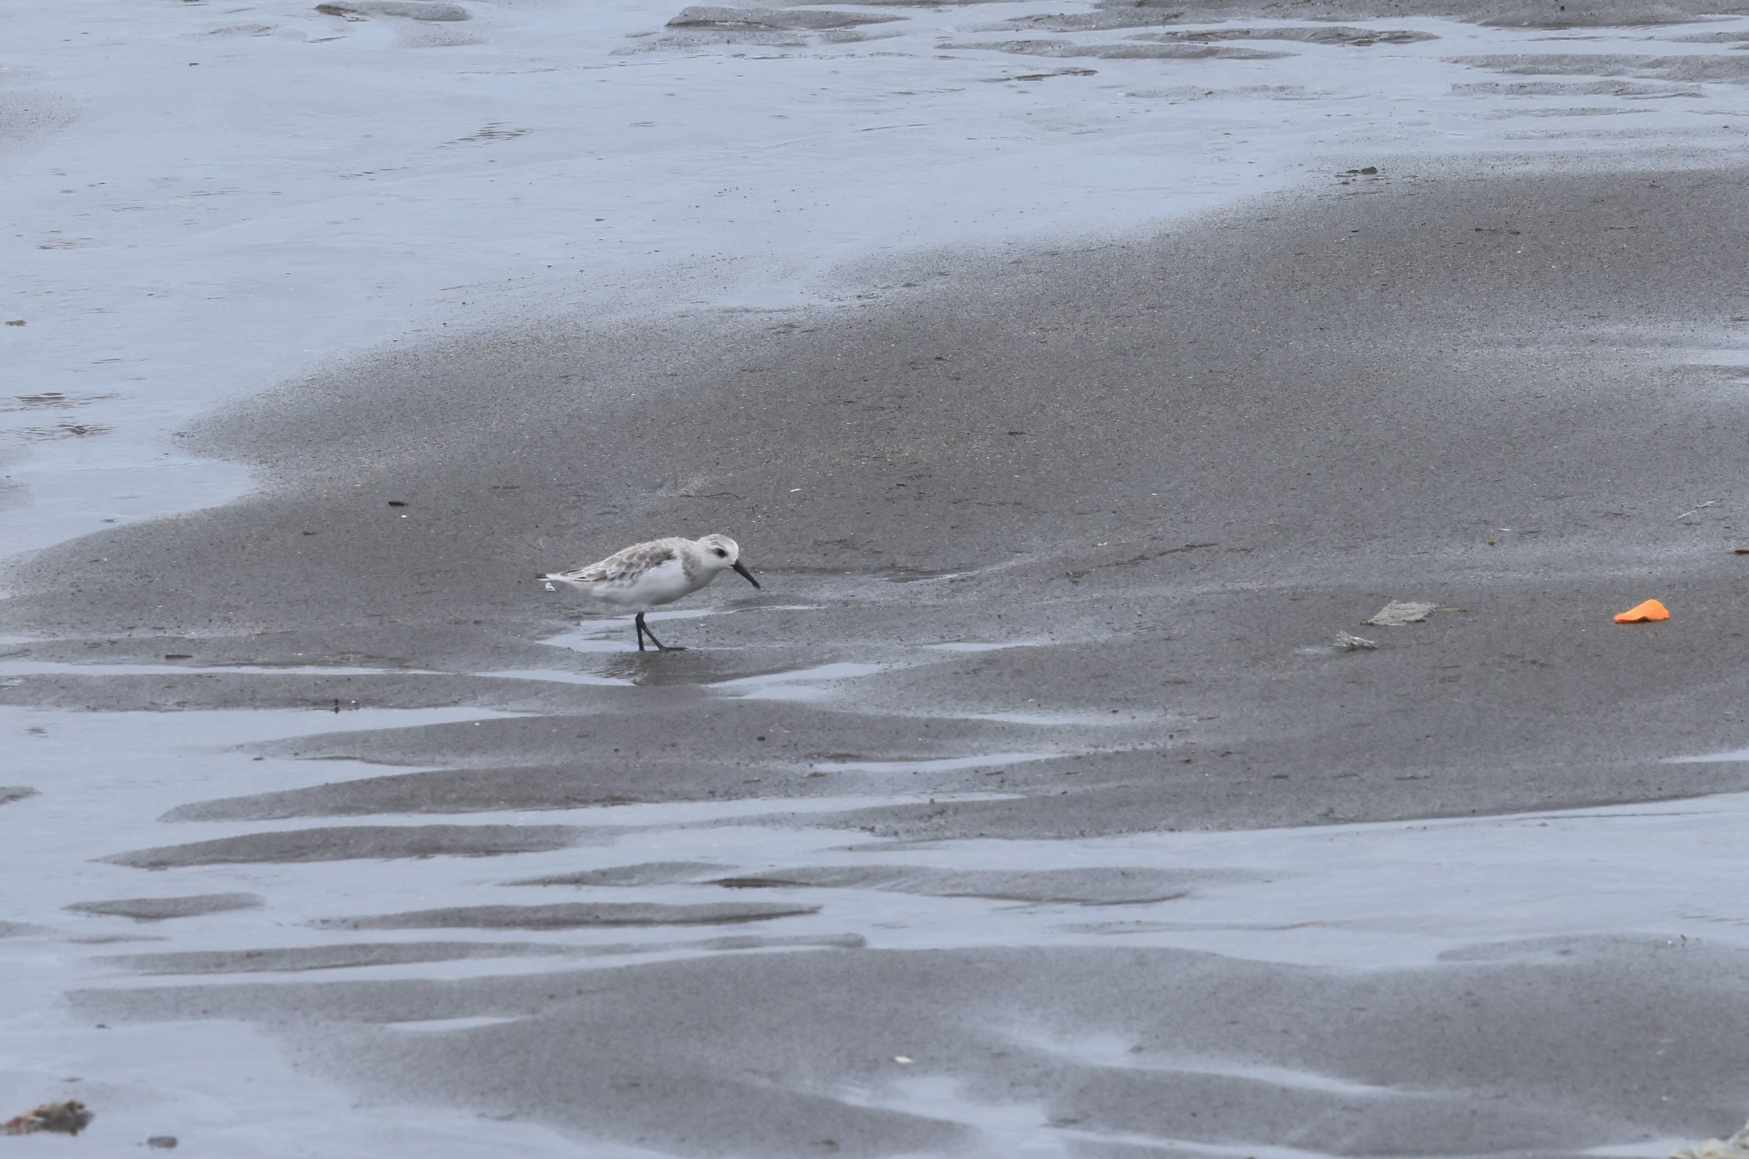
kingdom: Animalia
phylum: Chordata
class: Aves
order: Charadriiformes
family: Scolopacidae
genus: Calidris
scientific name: Calidris alba
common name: Sanderling
